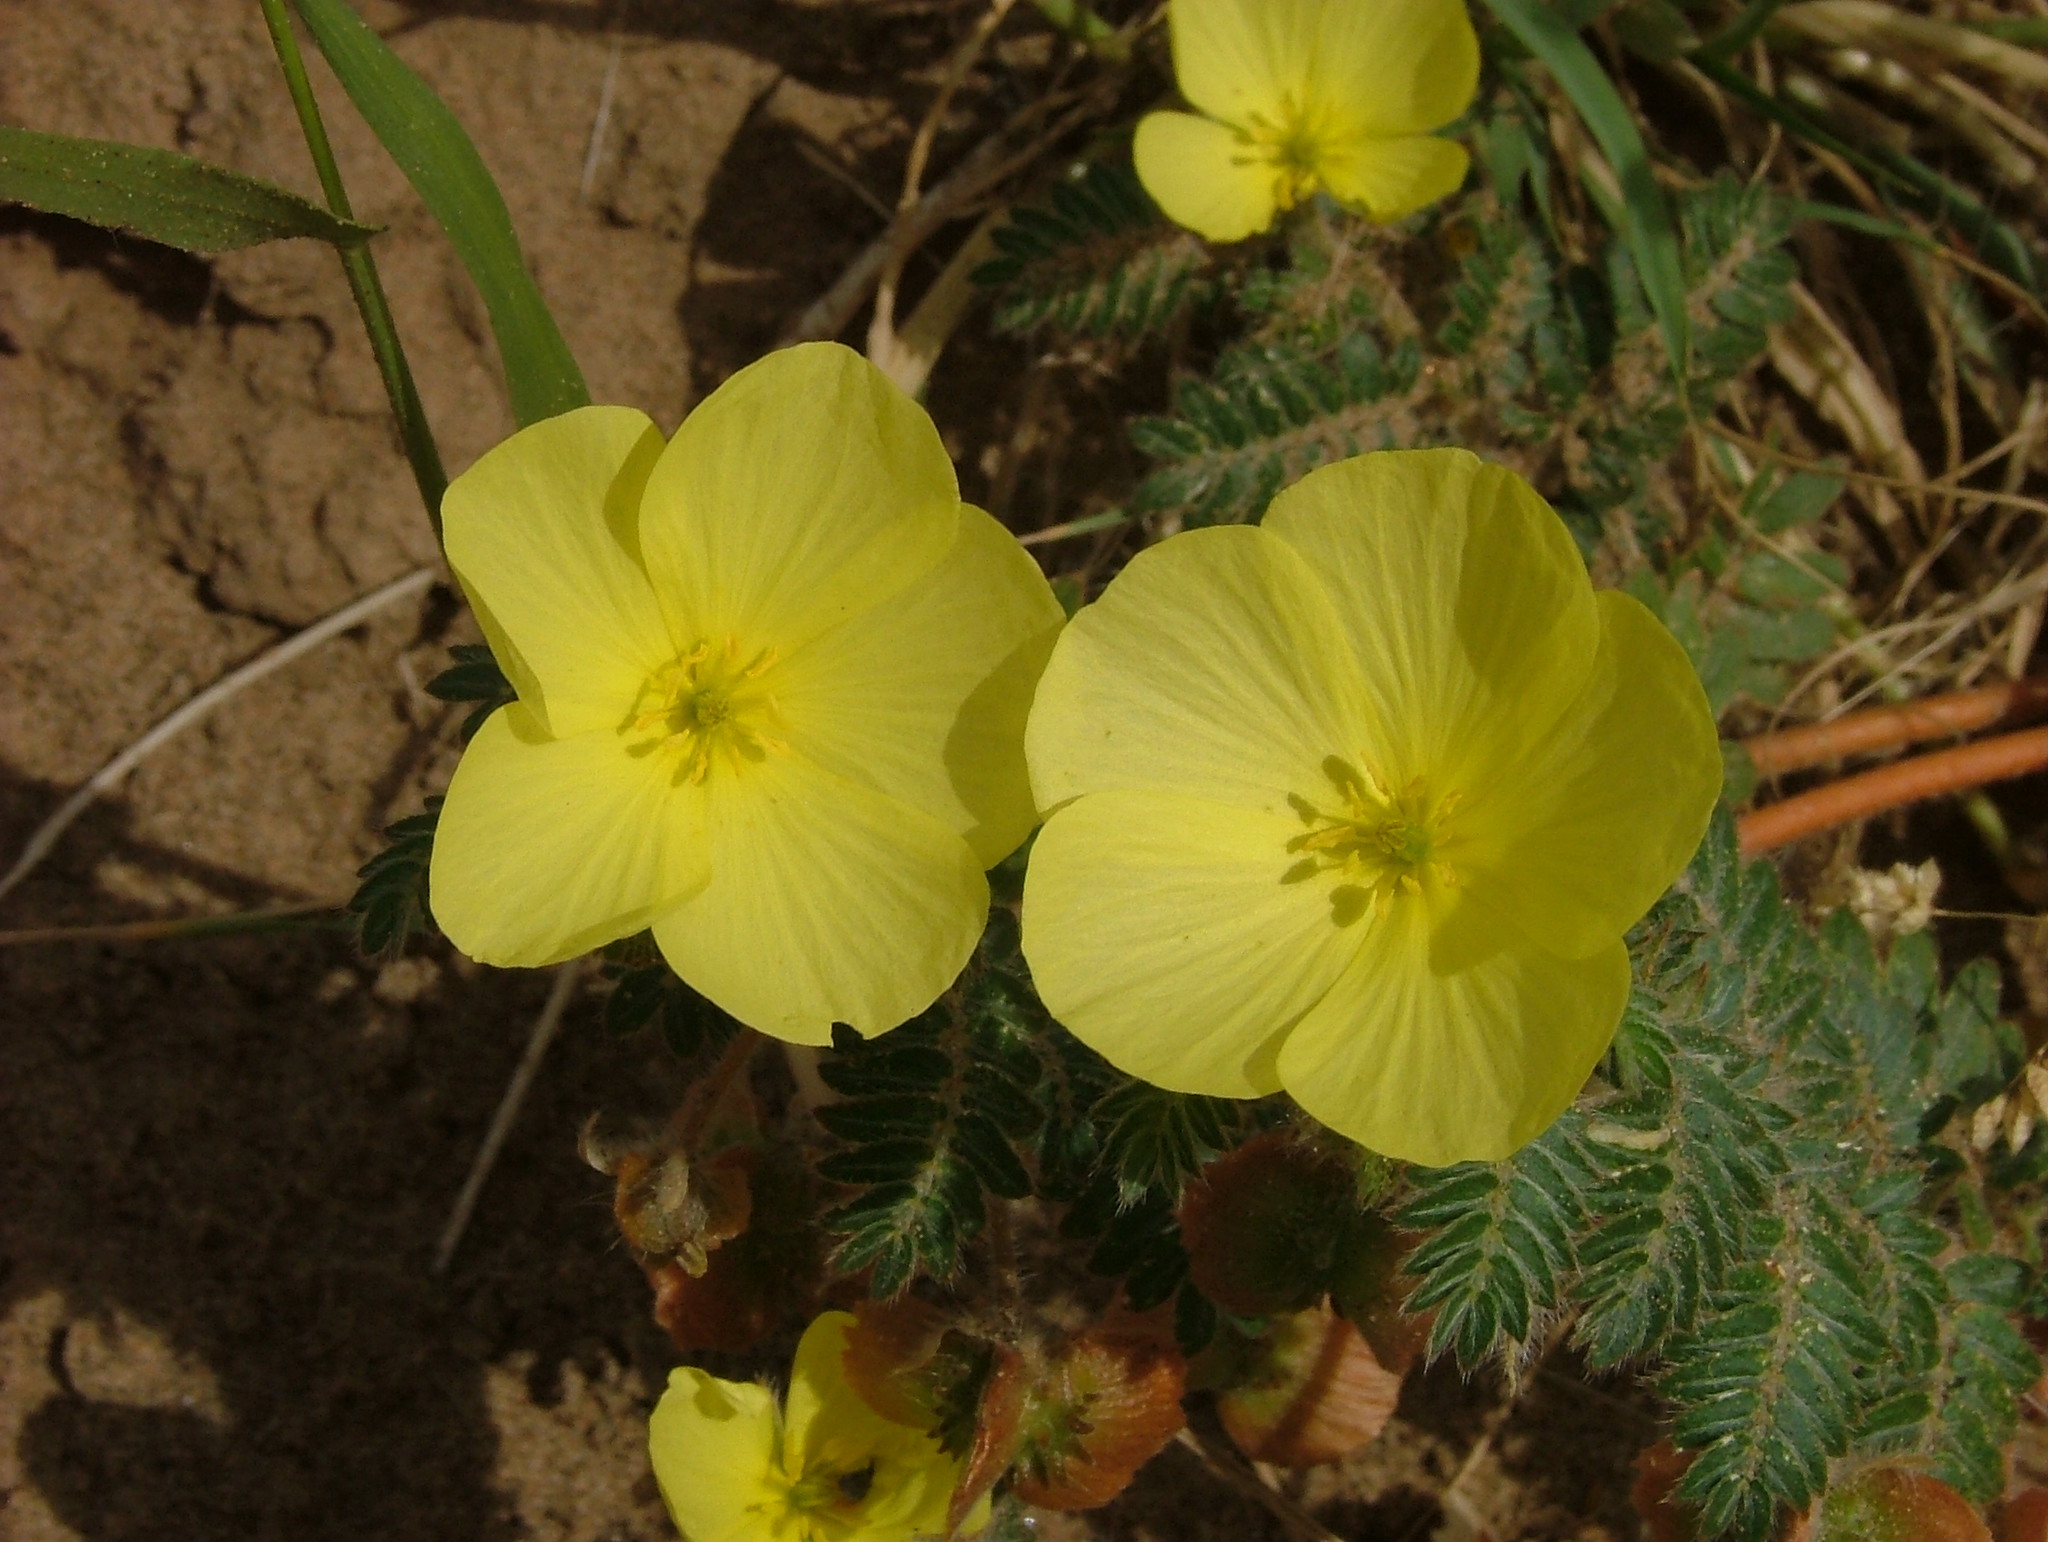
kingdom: Plantae
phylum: Tracheophyta
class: Magnoliopsida
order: Zygophyllales
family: Zygophyllaceae
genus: Tribulus
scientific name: Tribulus terrestris
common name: Puncturevine
